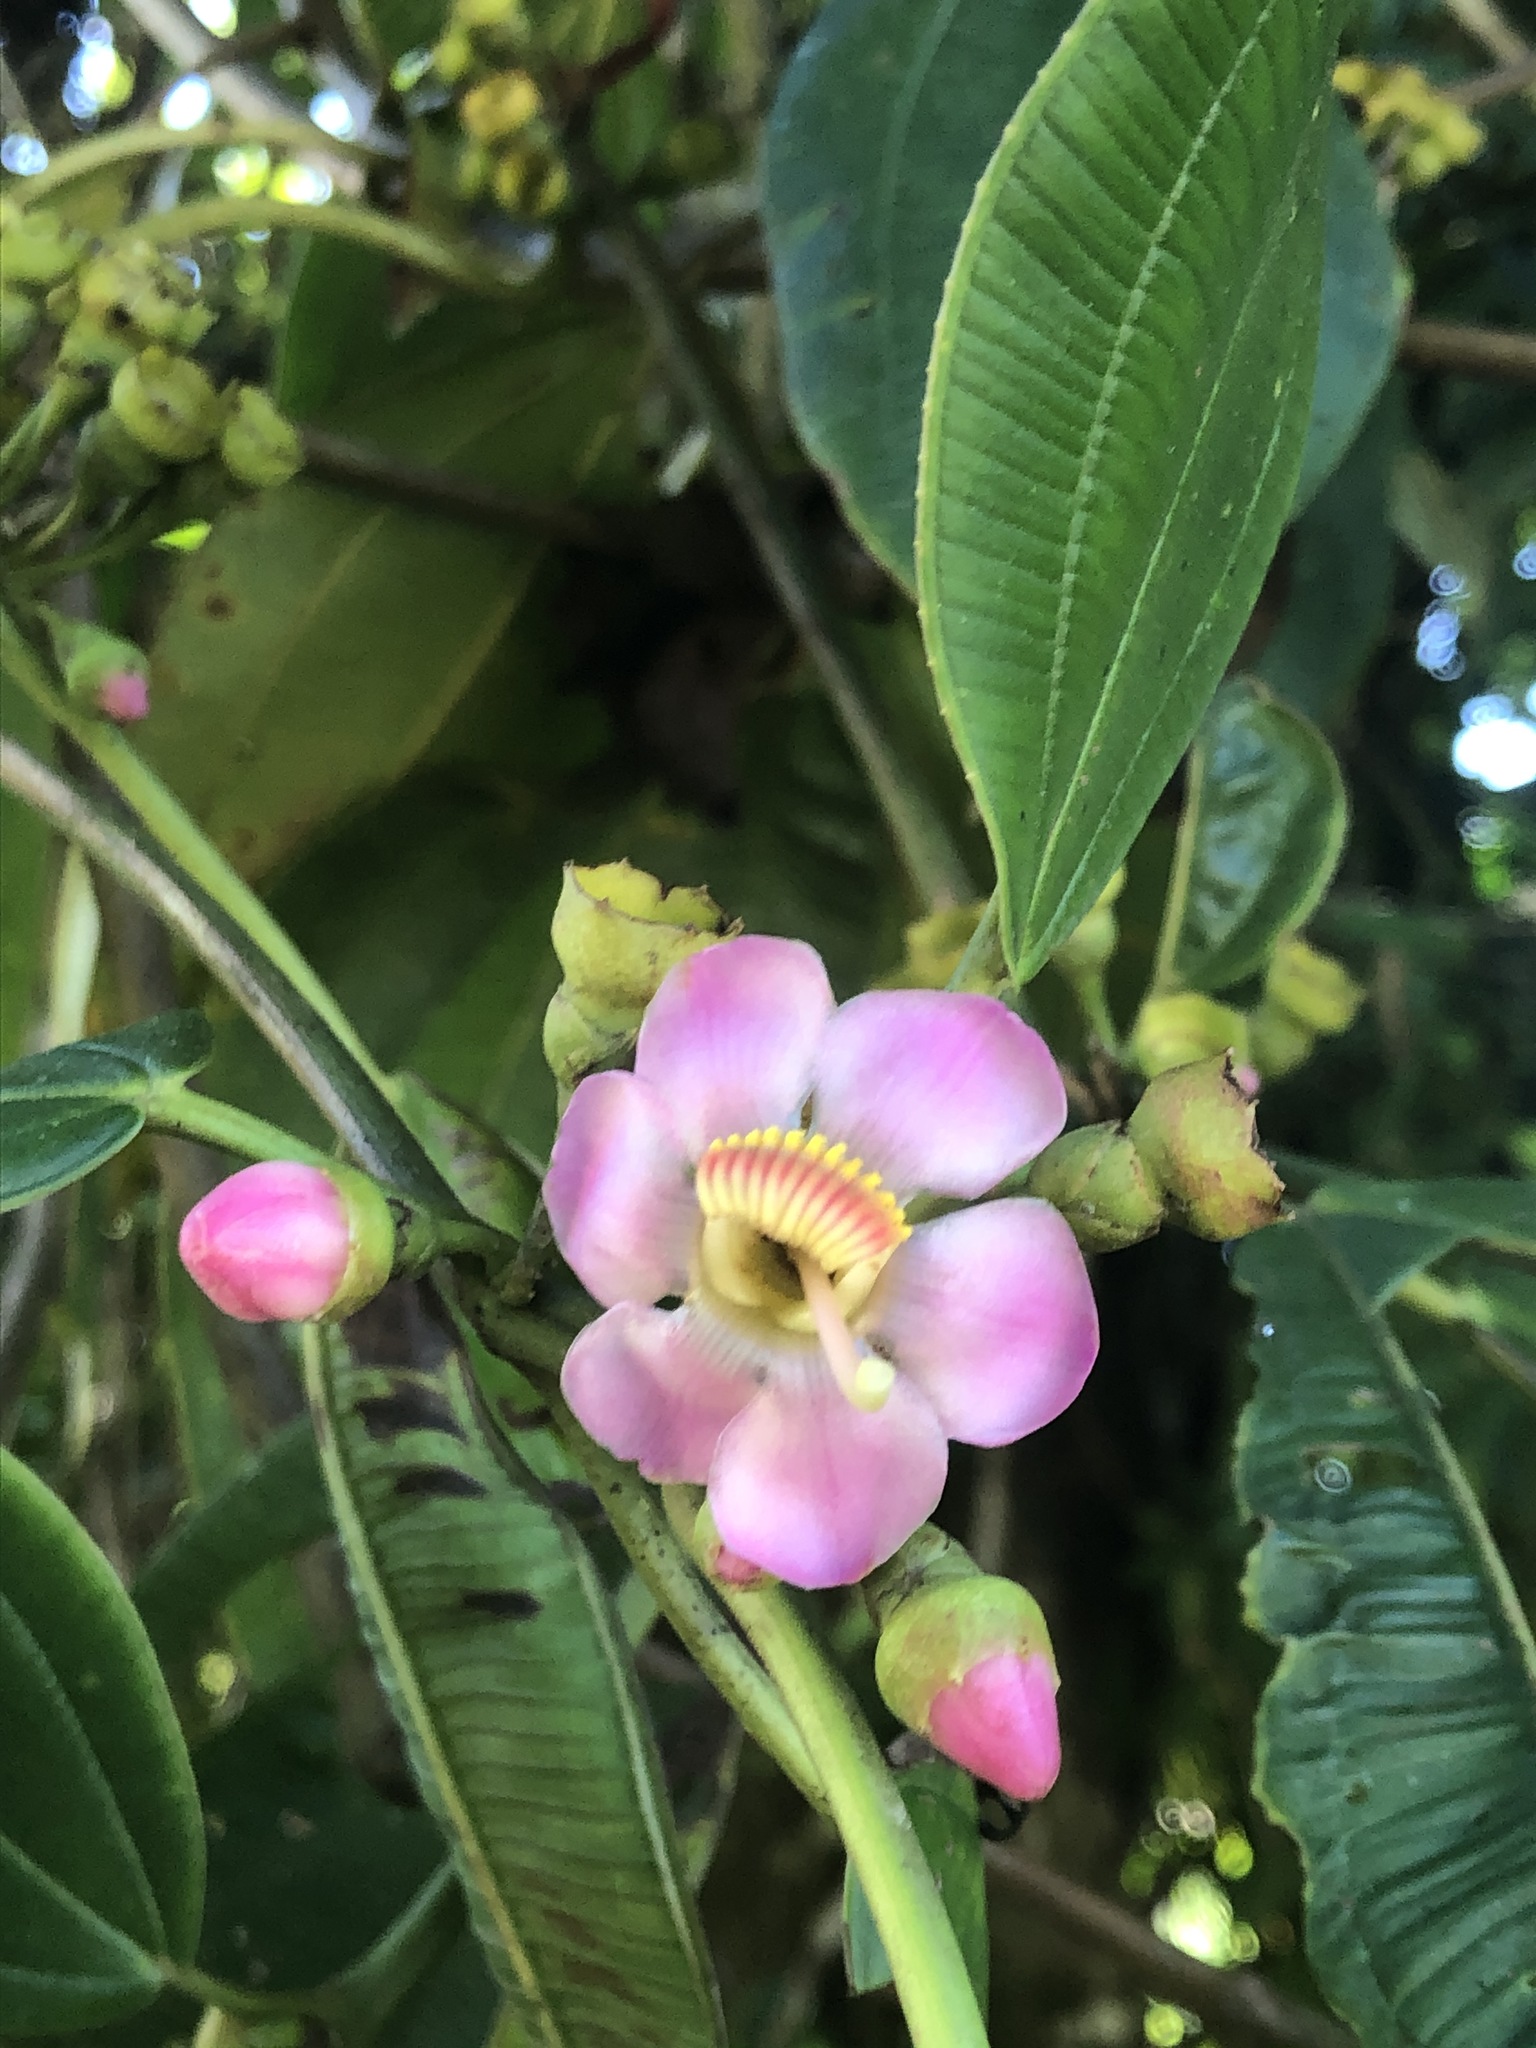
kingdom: Plantae
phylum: Tracheophyta
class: Magnoliopsida
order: Myrtales
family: Melastomataceae
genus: Blakea
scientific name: Blakea maurofernandeziana
